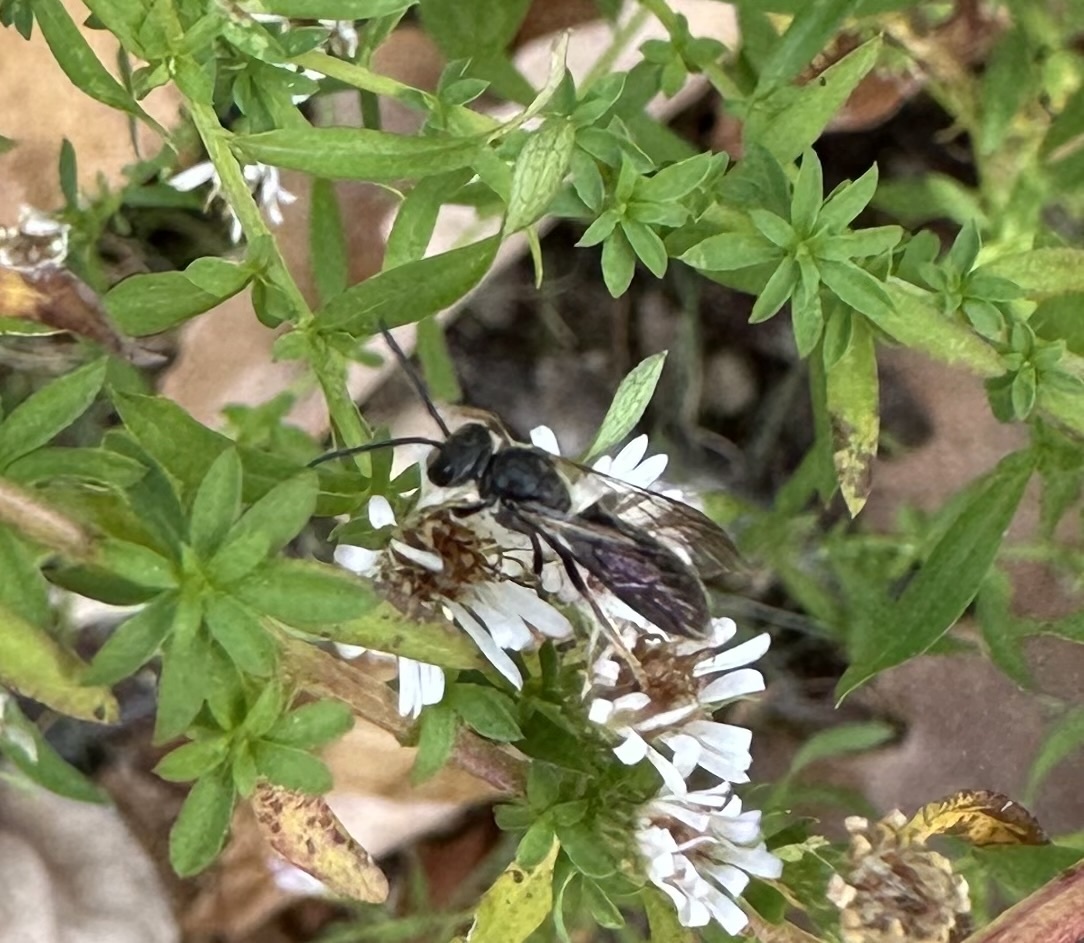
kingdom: Animalia
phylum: Arthropoda
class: Insecta
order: Hymenoptera
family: Halictidae
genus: Lasioglossum
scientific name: Lasioglossum fuscipenne
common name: Brown-winged sweat bee
